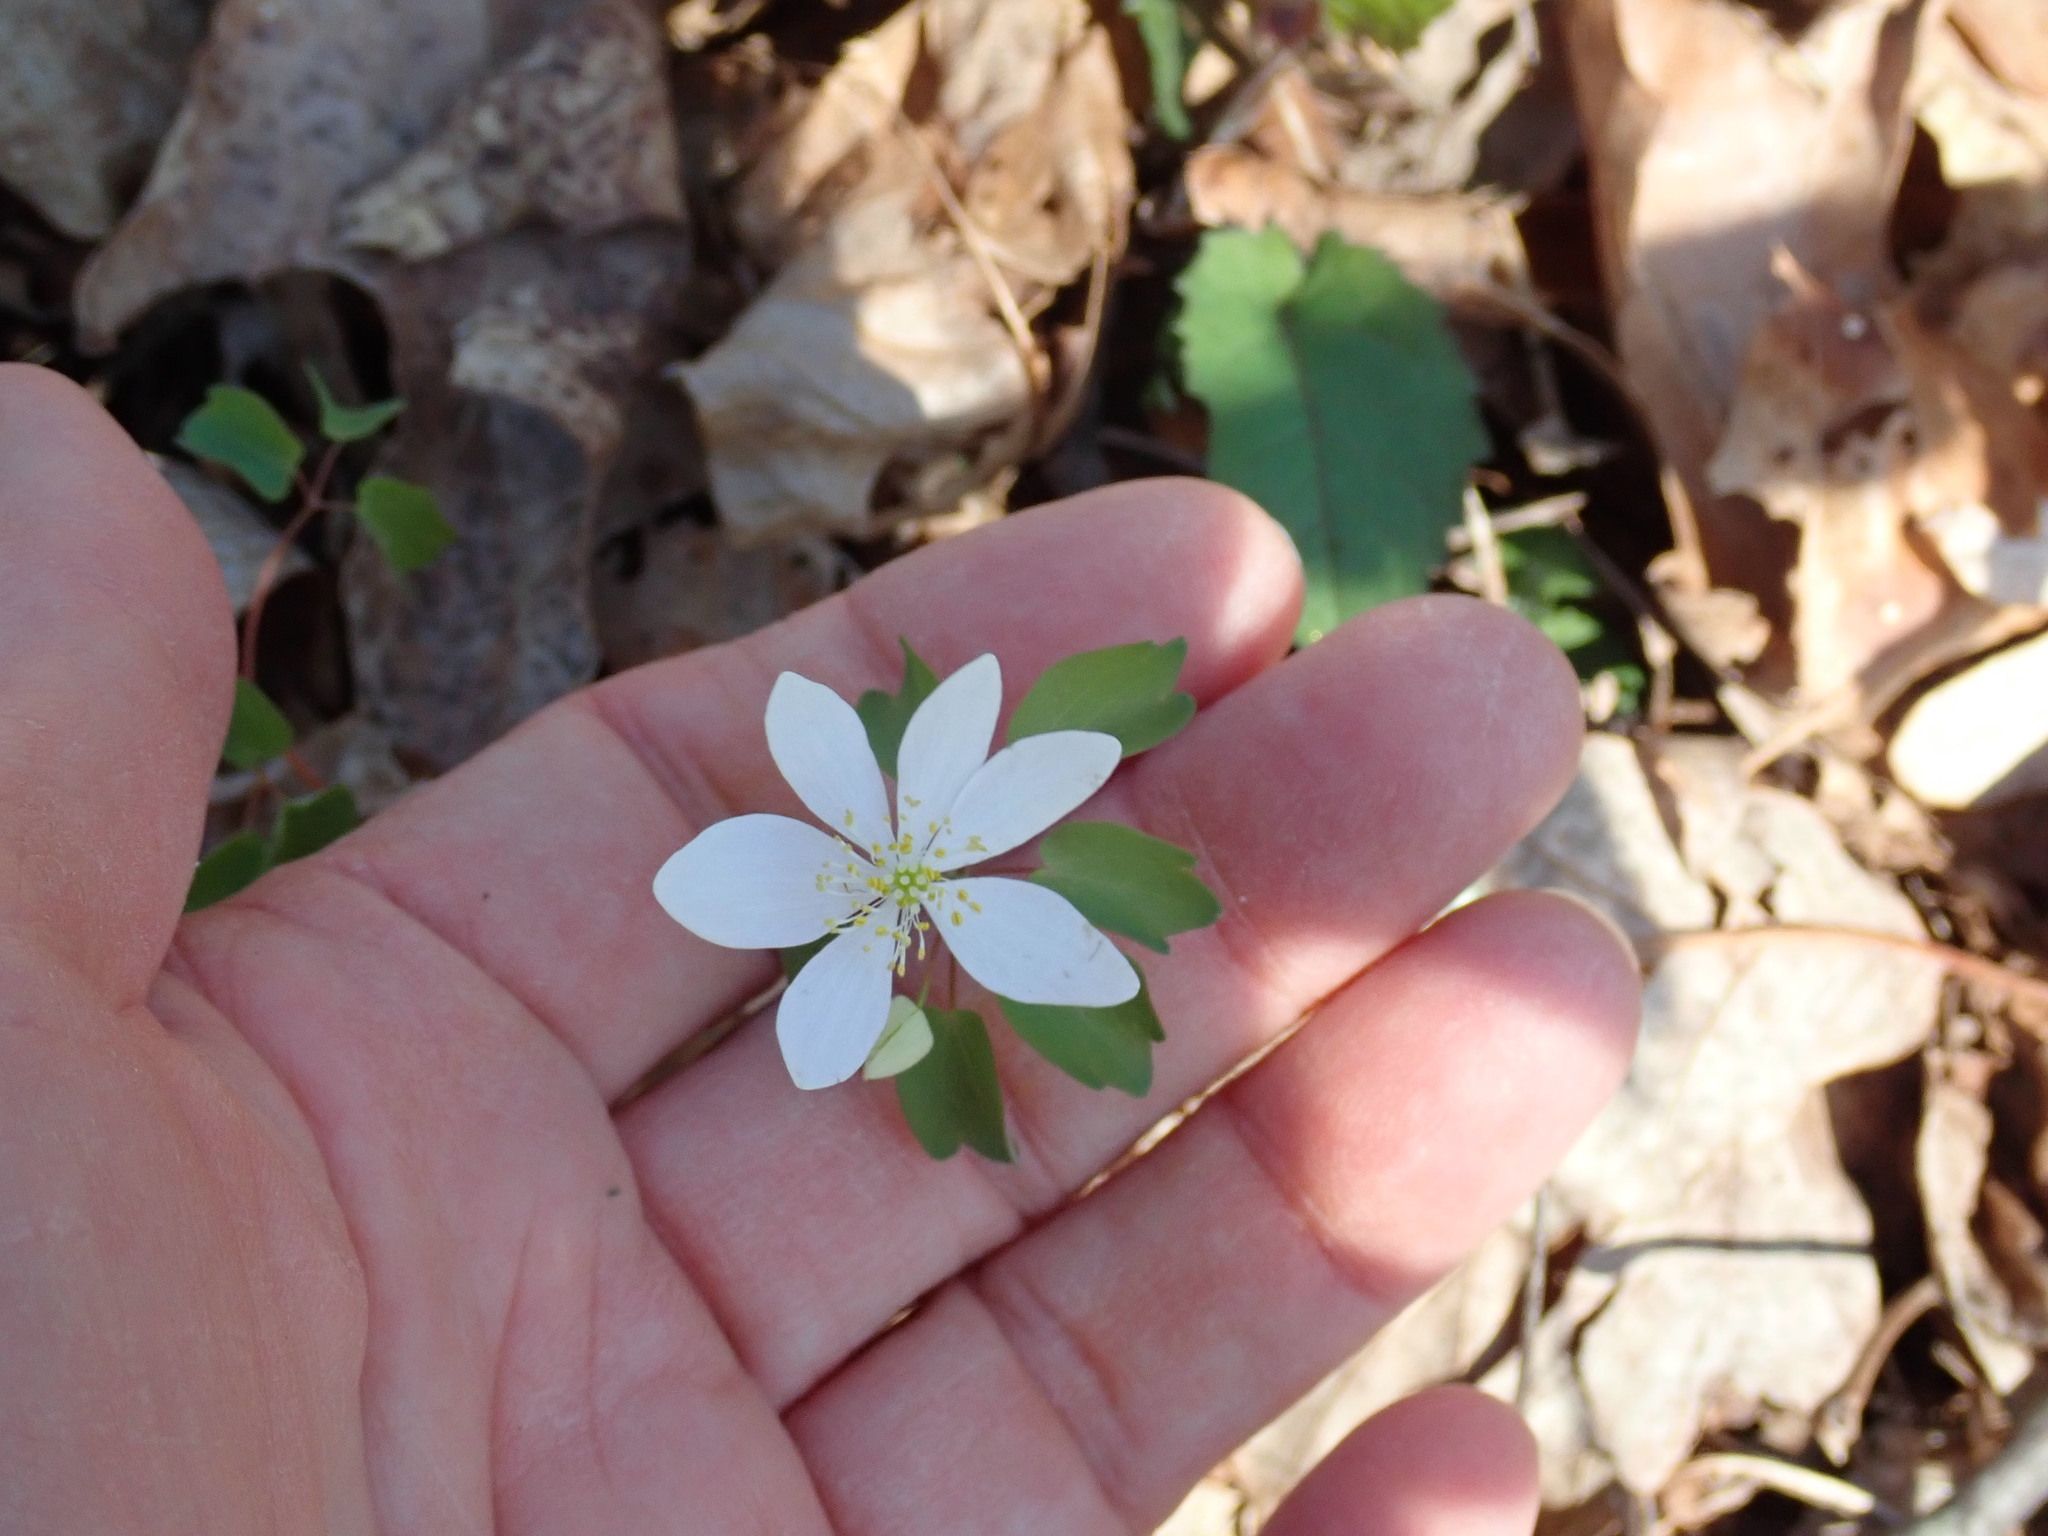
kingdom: Plantae
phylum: Tracheophyta
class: Magnoliopsida
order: Ranunculales
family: Ranunculaceae
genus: Thalictrum
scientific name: Thalictrum thalictroides
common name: Rue-anemone
